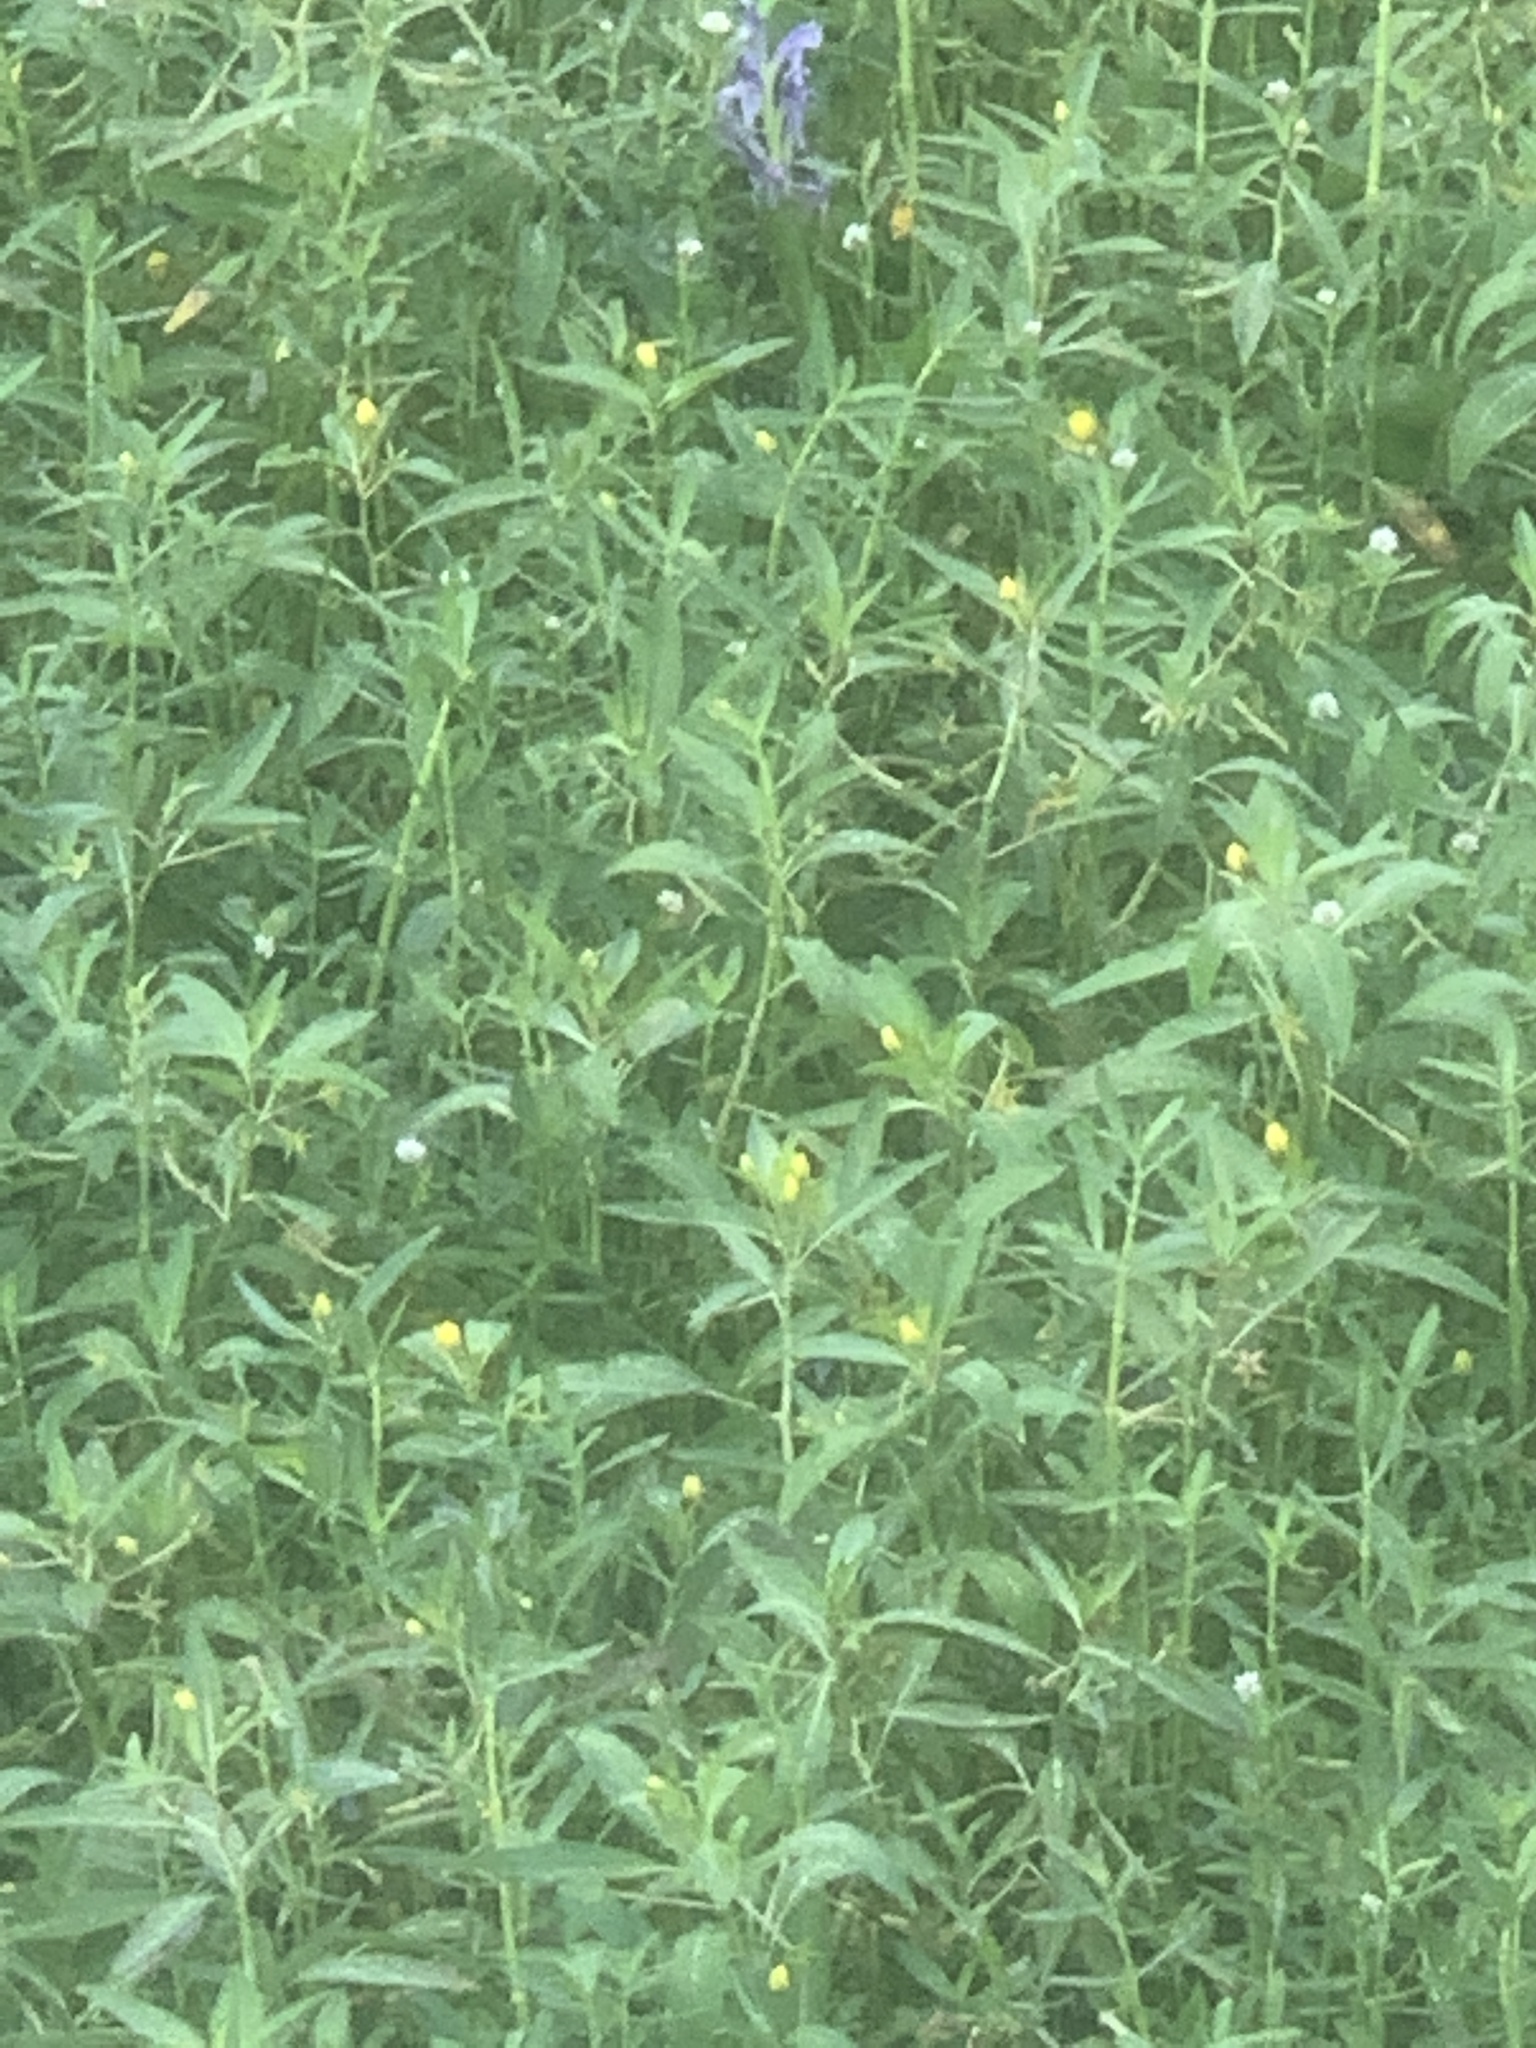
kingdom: Plantae
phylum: Tracheophyta
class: Magnoliopsida
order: Myrtales
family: Onagraceae
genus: Ludwigia
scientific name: Ludwigia peploides
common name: Floating primrose-willow
